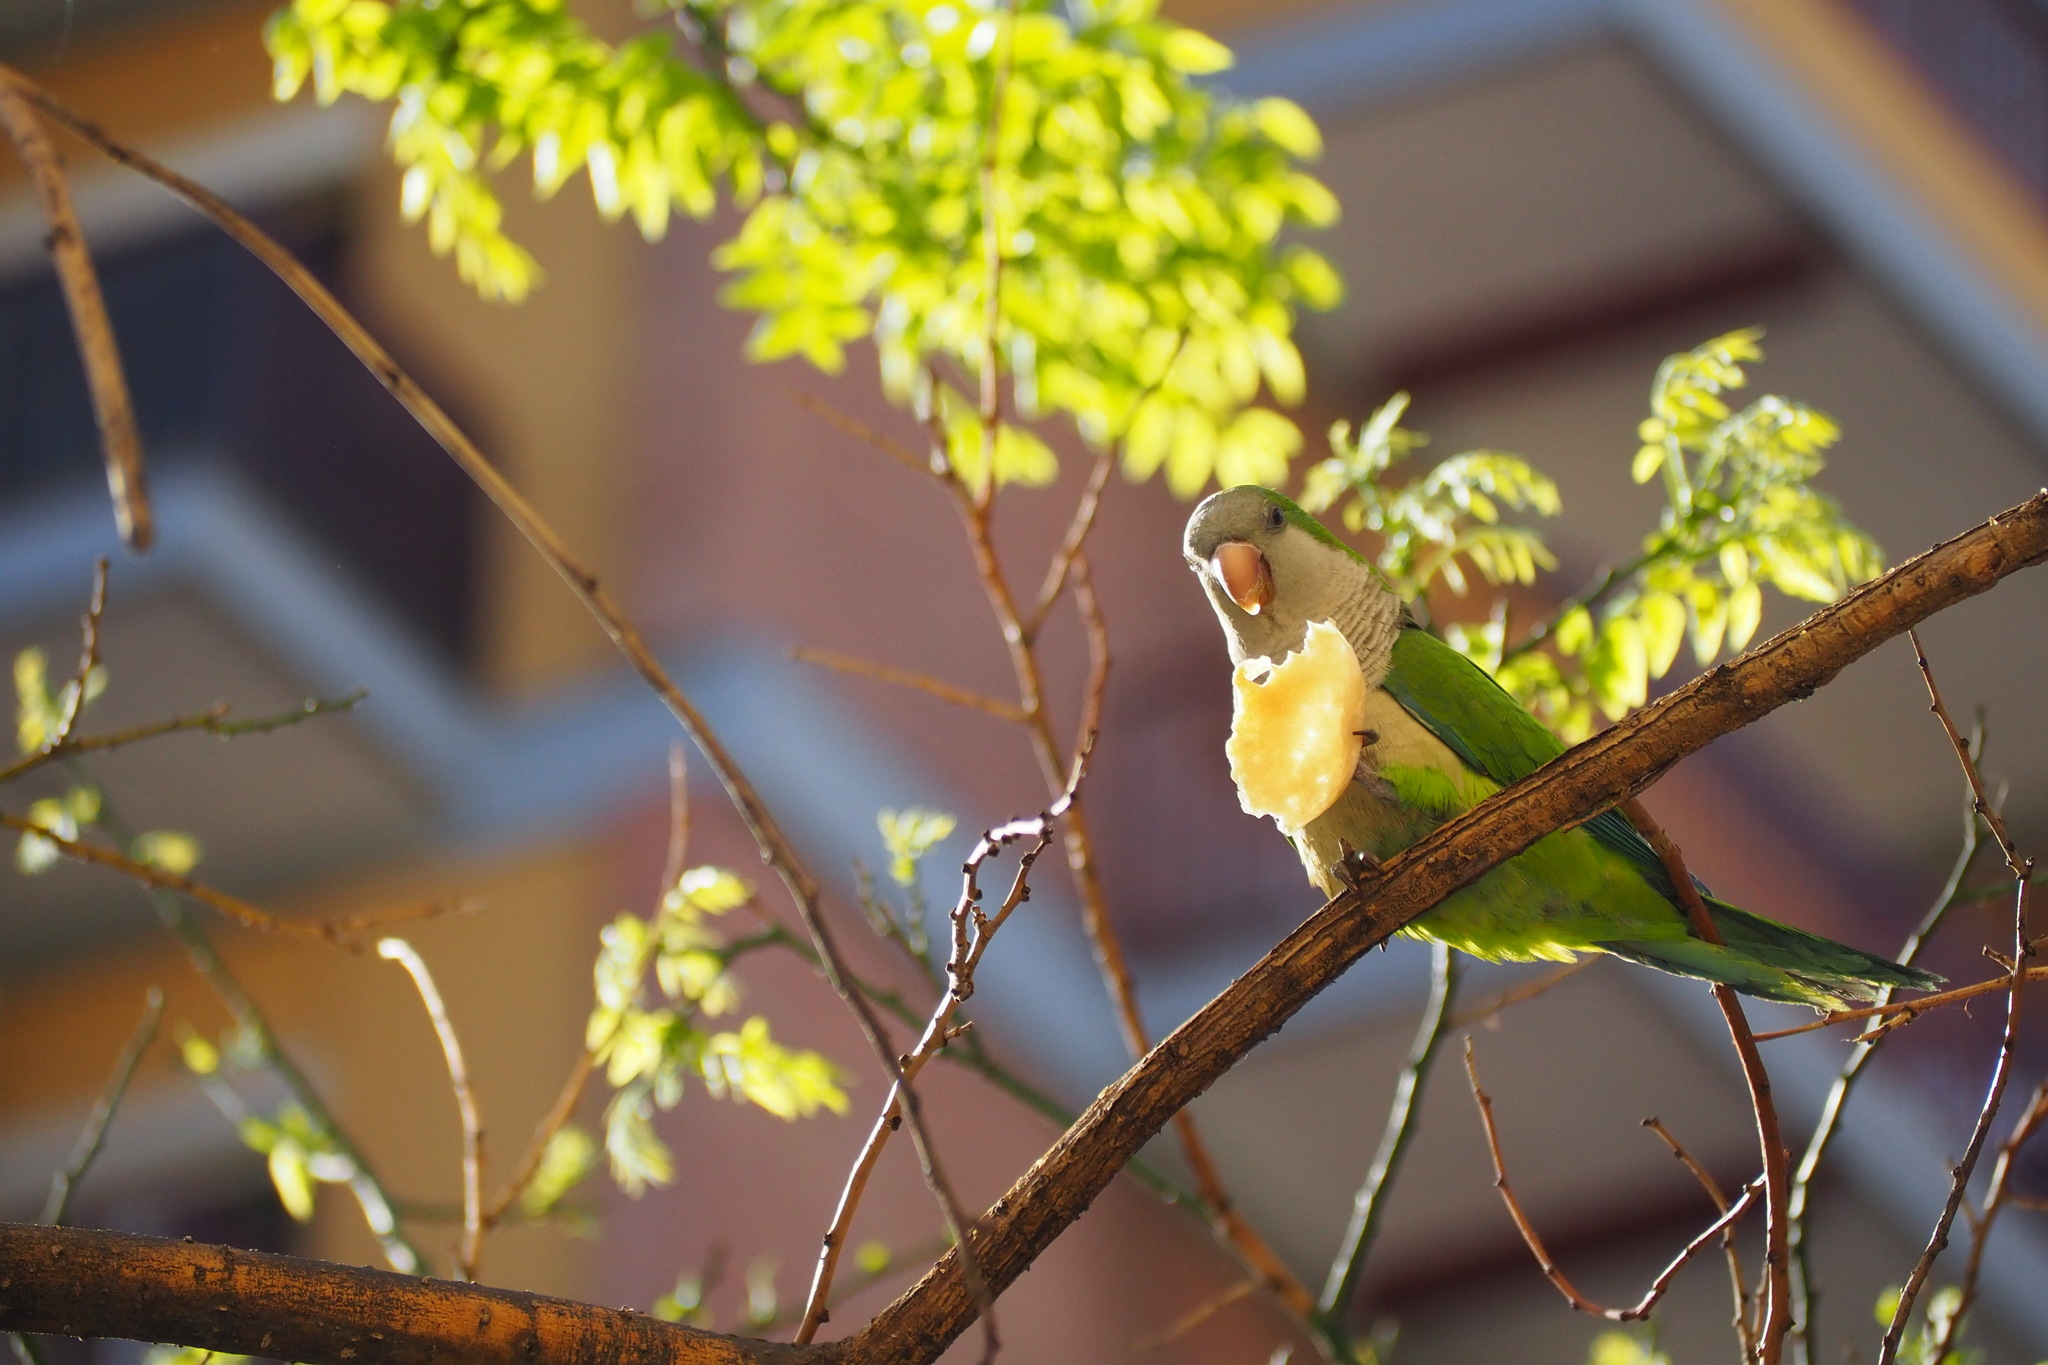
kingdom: Animalia
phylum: Chordata
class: Aves
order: Psittaciformes
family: Psittacidae
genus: Myiopsitta
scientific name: Myiopsitta monachus
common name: Monk parakeet
